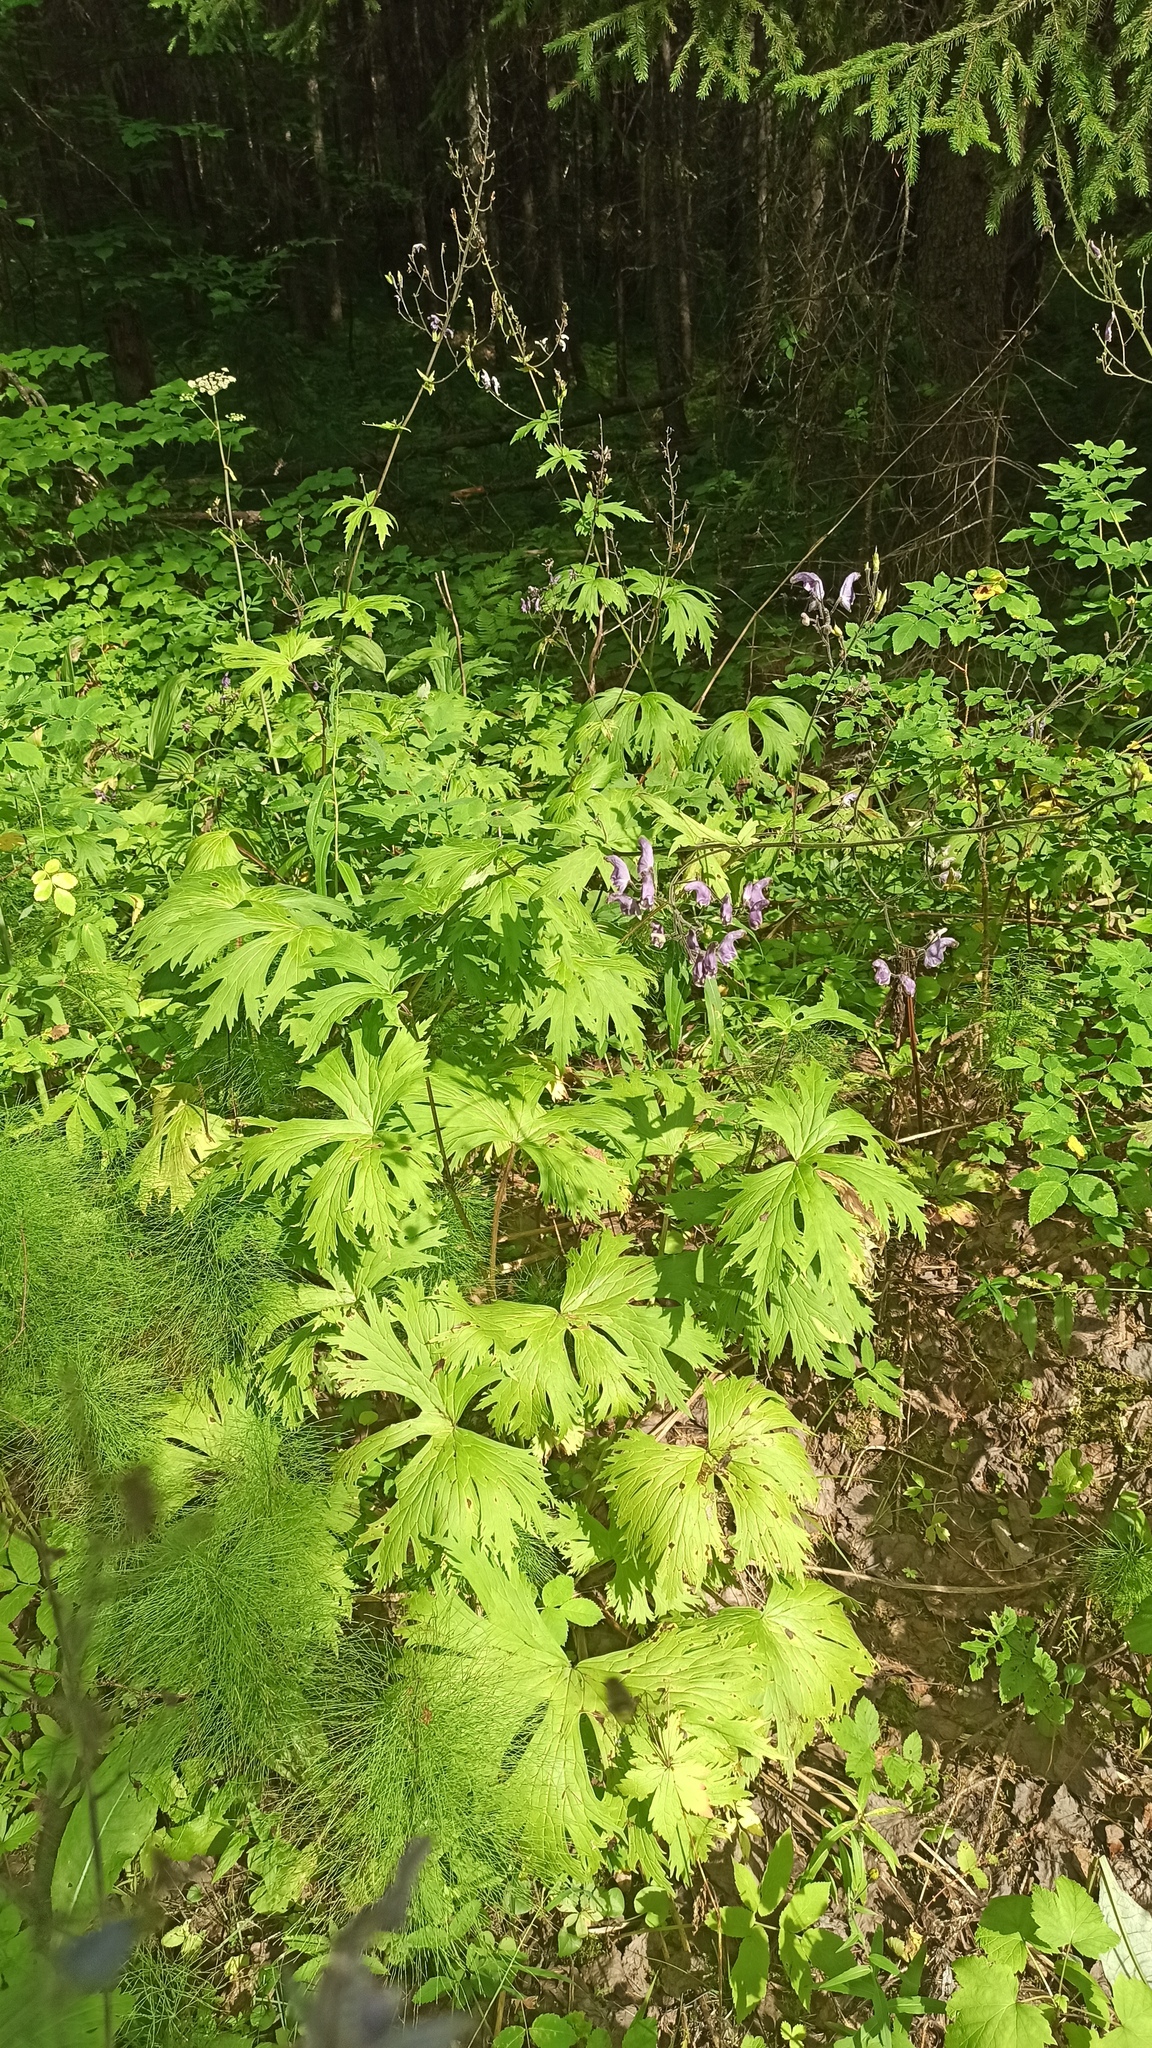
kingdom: Plantae
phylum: Tracheophyta
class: Magnoliopsida
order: Ranunculales
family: Ranunculaceae
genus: Aconitum
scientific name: Aconitum septentrionale
